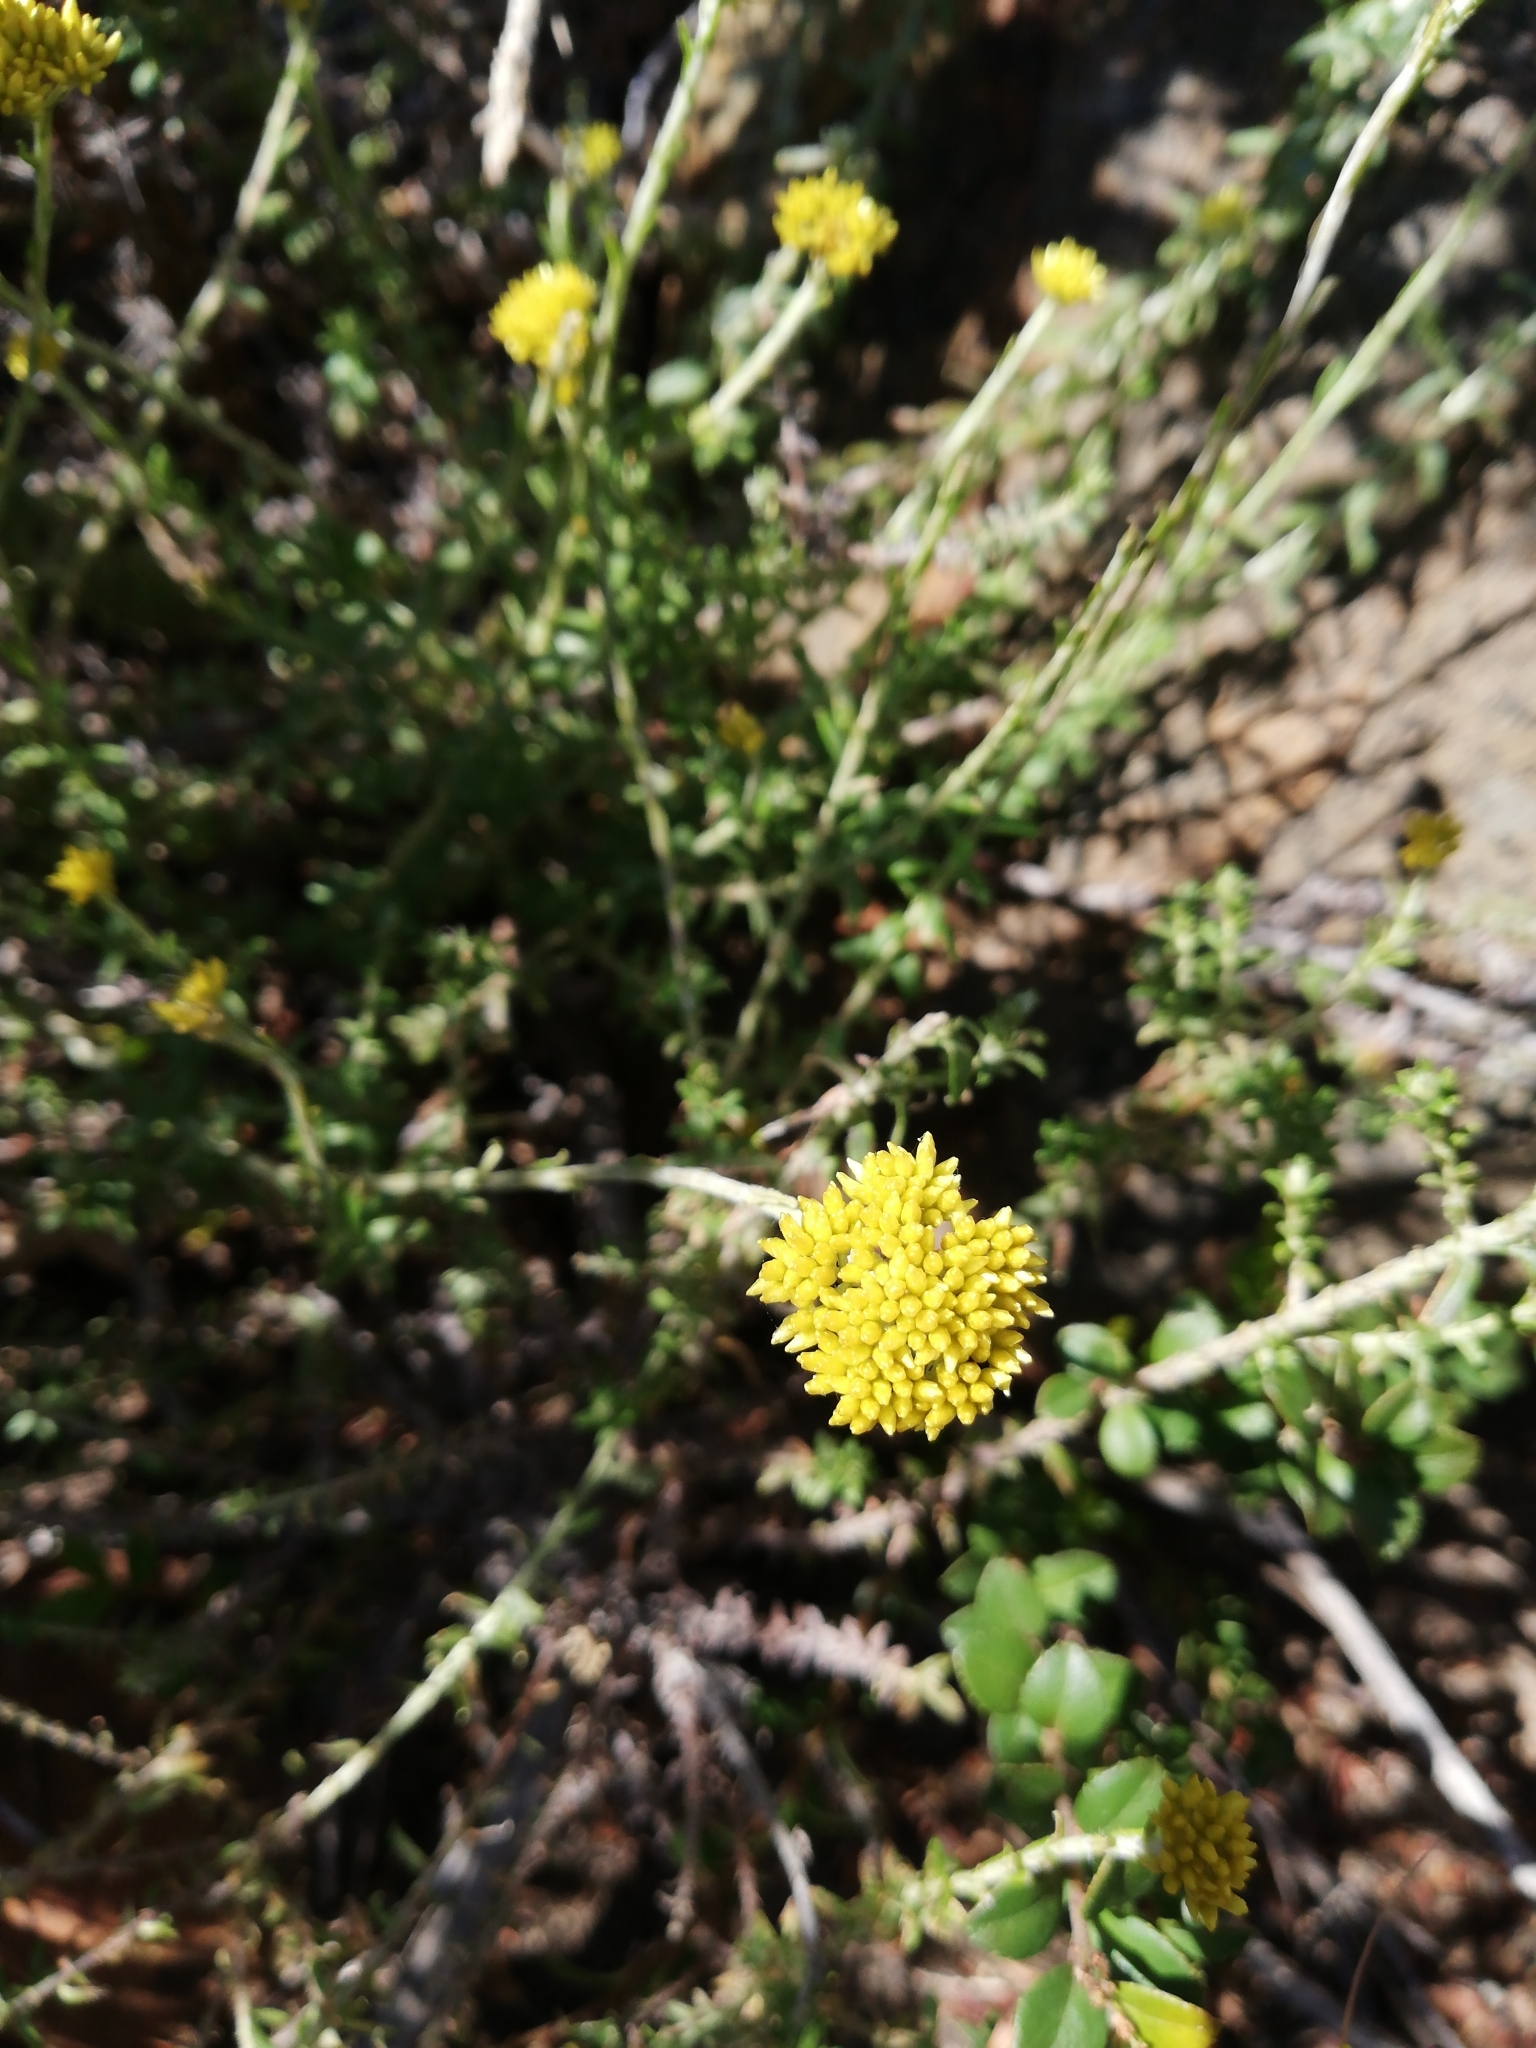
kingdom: Plantae
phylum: Tracheophyta
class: Magnoliopsida
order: Asterales
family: Asteraceae
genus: Helichrysum
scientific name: Helichrysum cymosum
